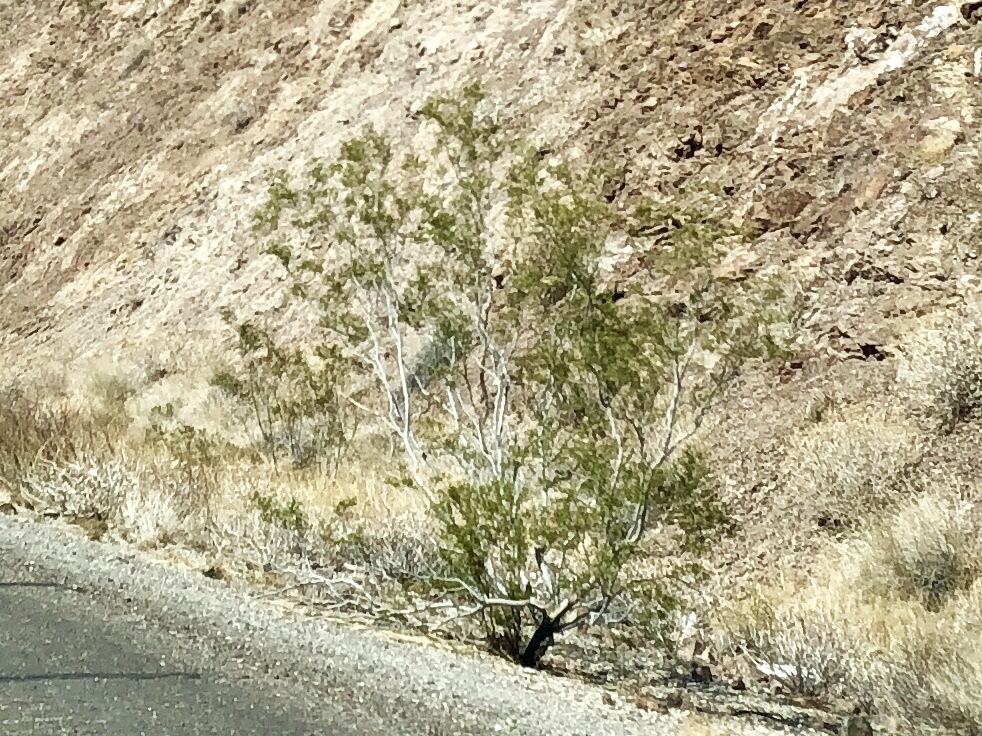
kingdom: Plantae
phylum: Tracheophyta
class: Magnoliopsida
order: Zygophyllales
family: Zygophyllaceae
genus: Larrea
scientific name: Larrea tridentata
